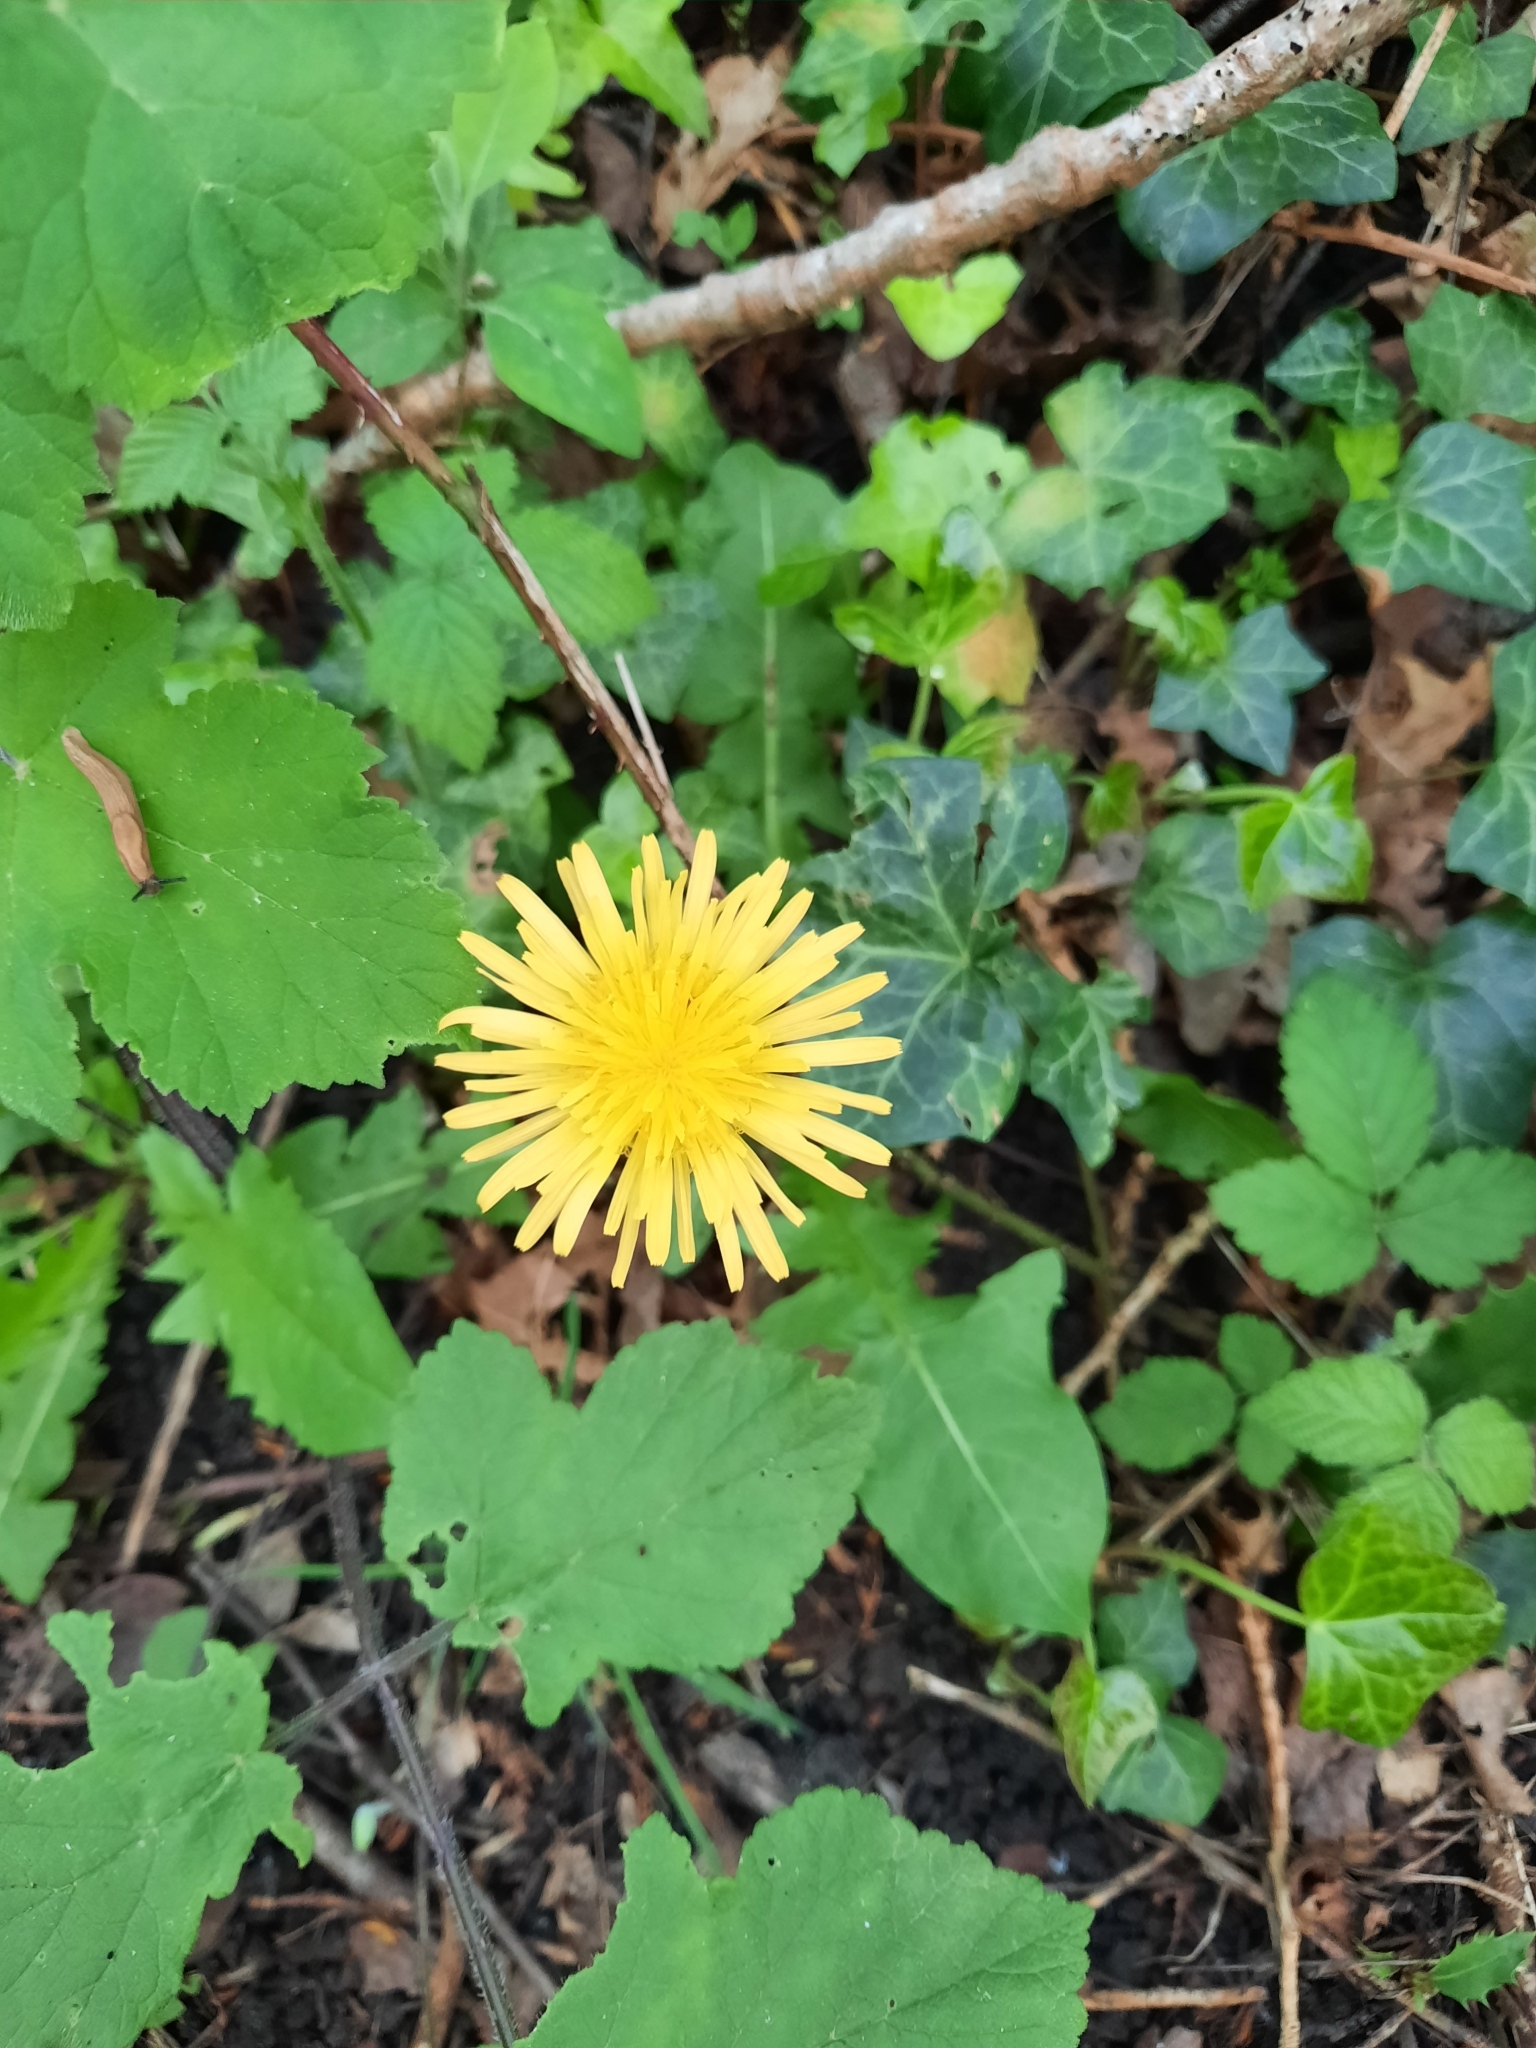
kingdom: Plantae
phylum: Tracheophyta
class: Magnoliopsida
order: Asterales
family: Asteraceae
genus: Taraxacum
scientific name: Taraxacum officinale
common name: Common dandelion
